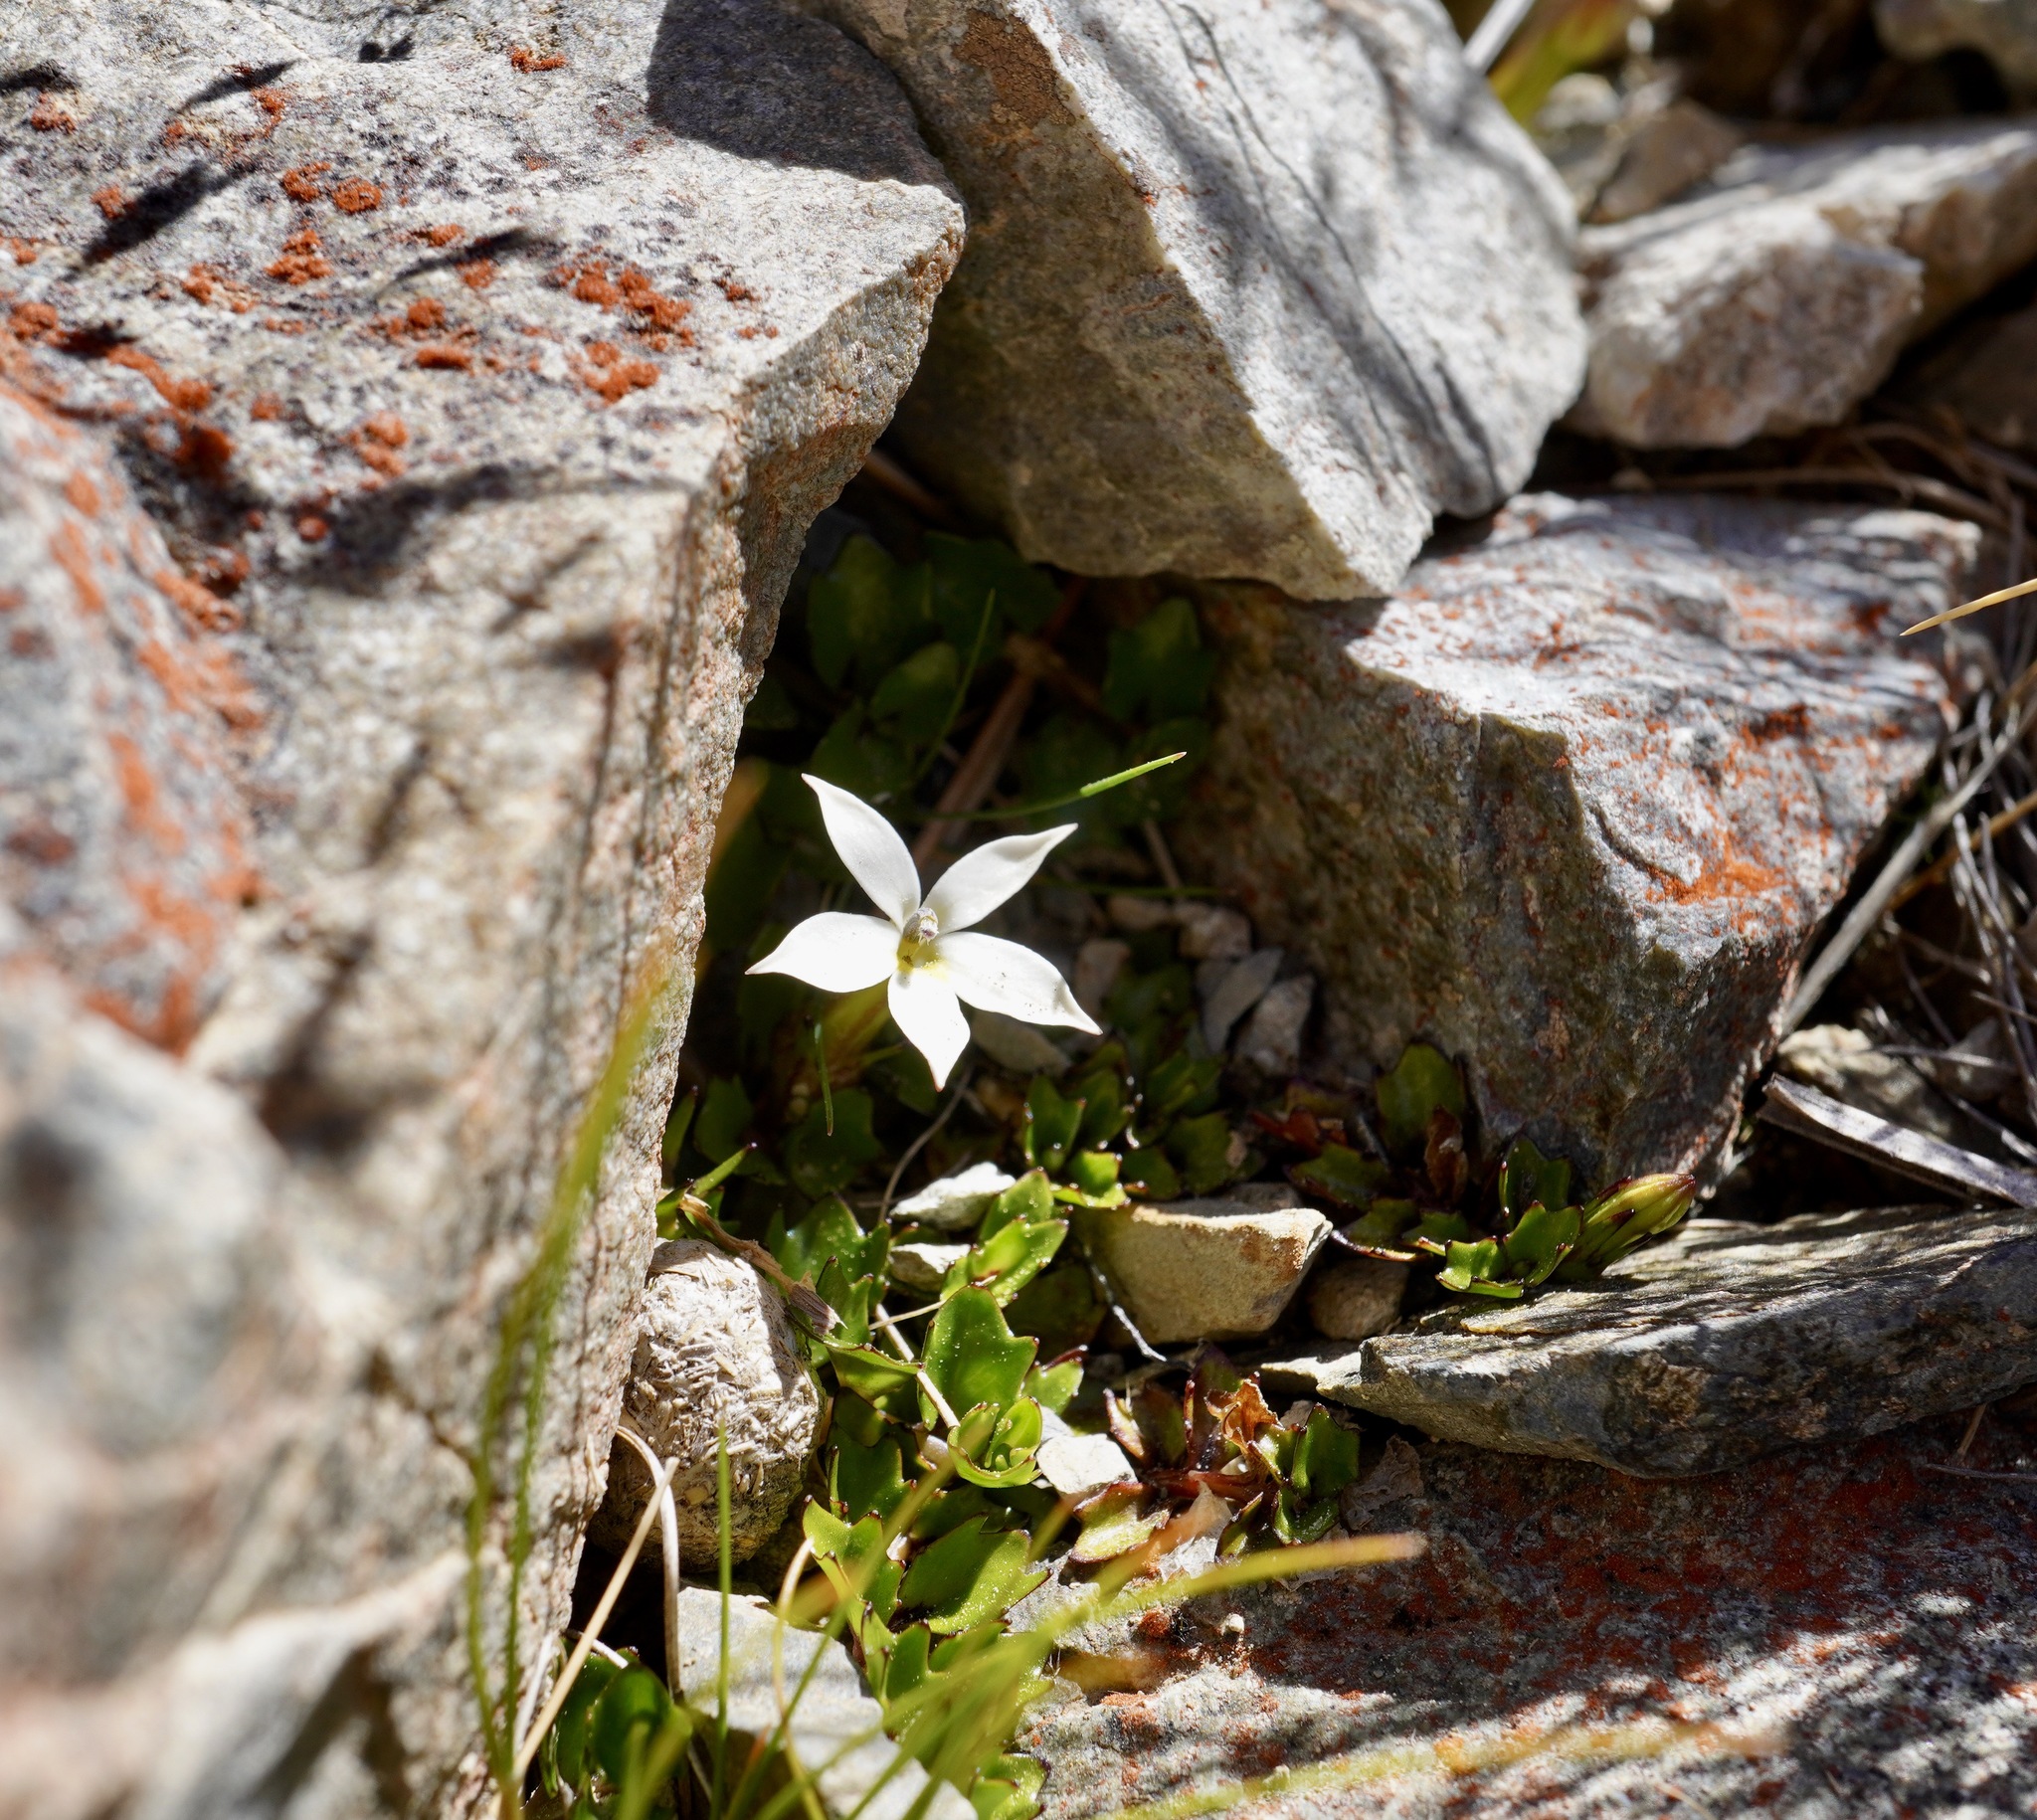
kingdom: Plantae
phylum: Tracheophyta
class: Magnoliopsida
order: Asterales
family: Campanulaceae
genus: Lobelia
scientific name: Lobelia macrodon
